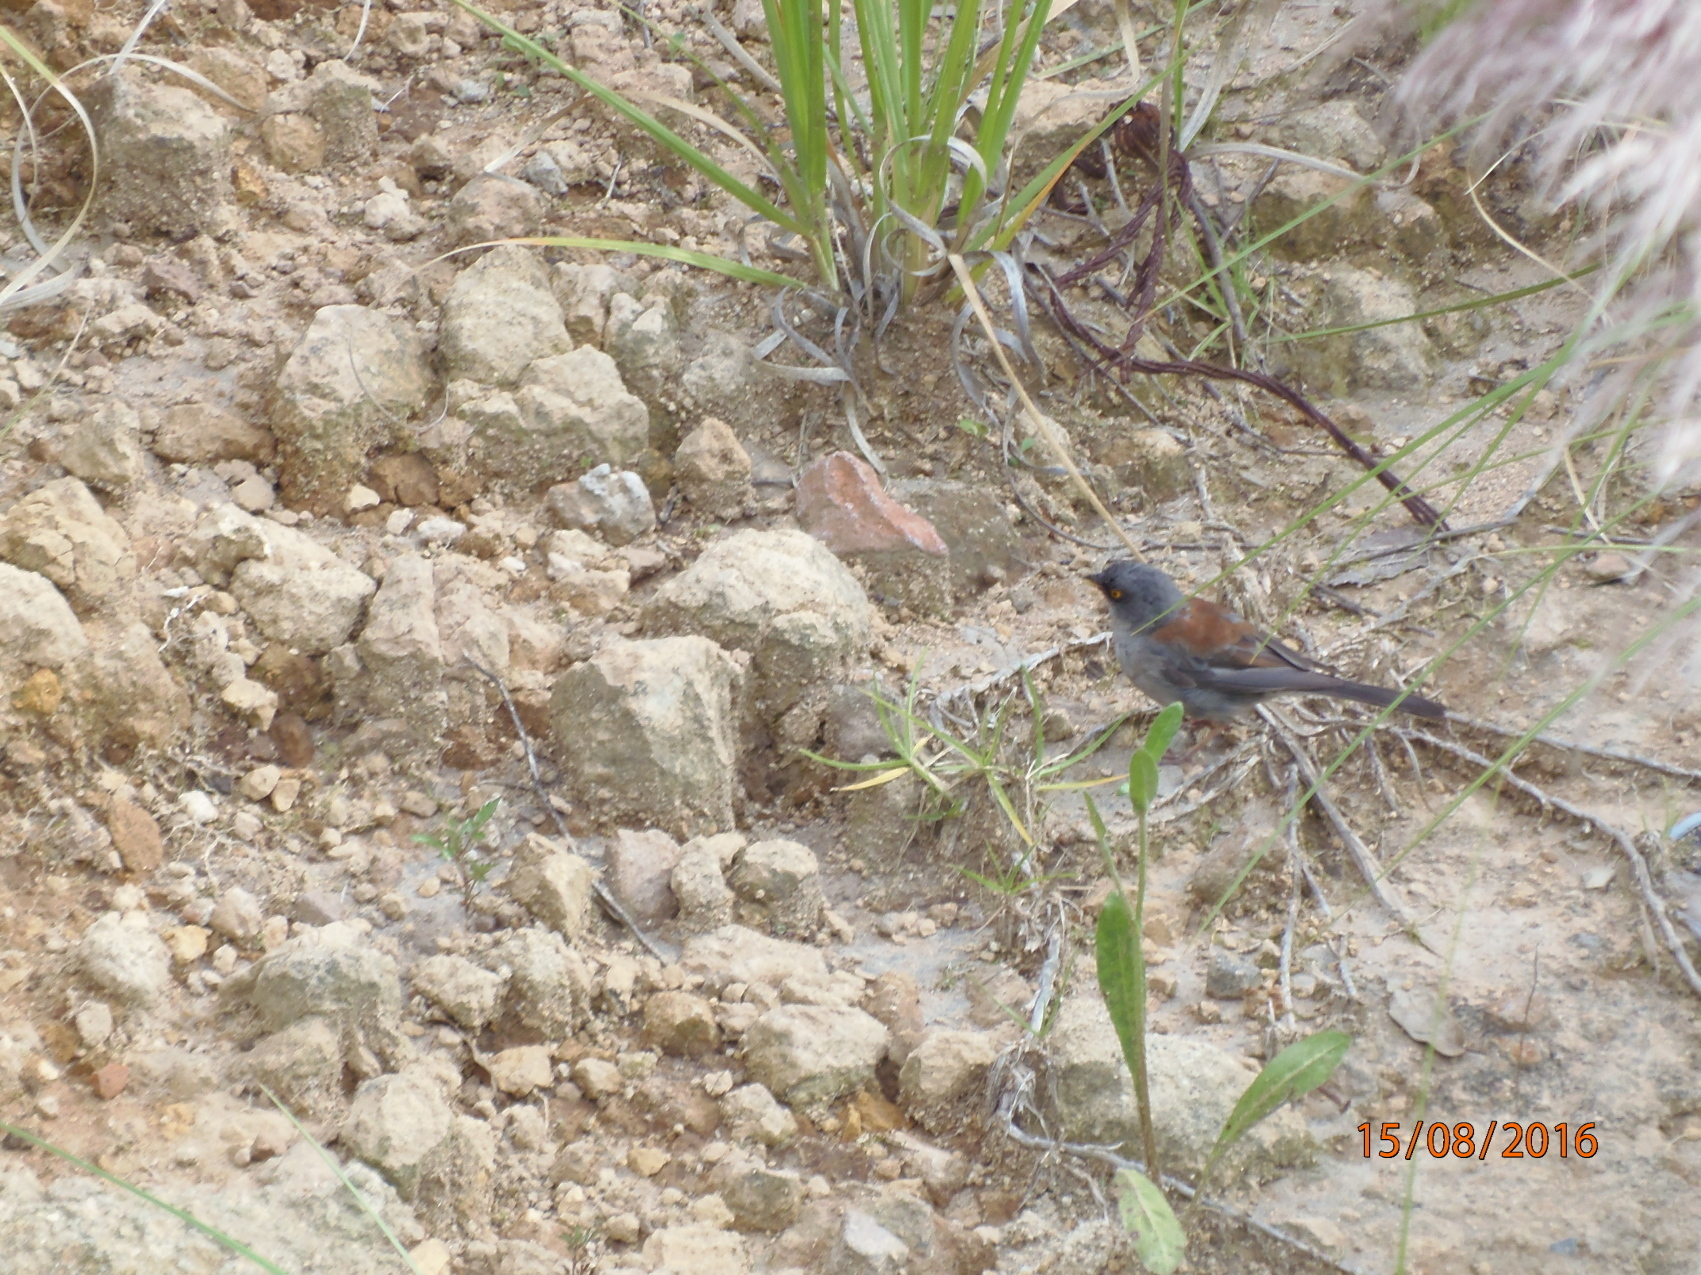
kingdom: Animalia
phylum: Chordata
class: Aves
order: Passeriformes
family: Passerellidae
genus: Junco
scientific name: Junco phaeonotus
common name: Yellow-eyed junco
